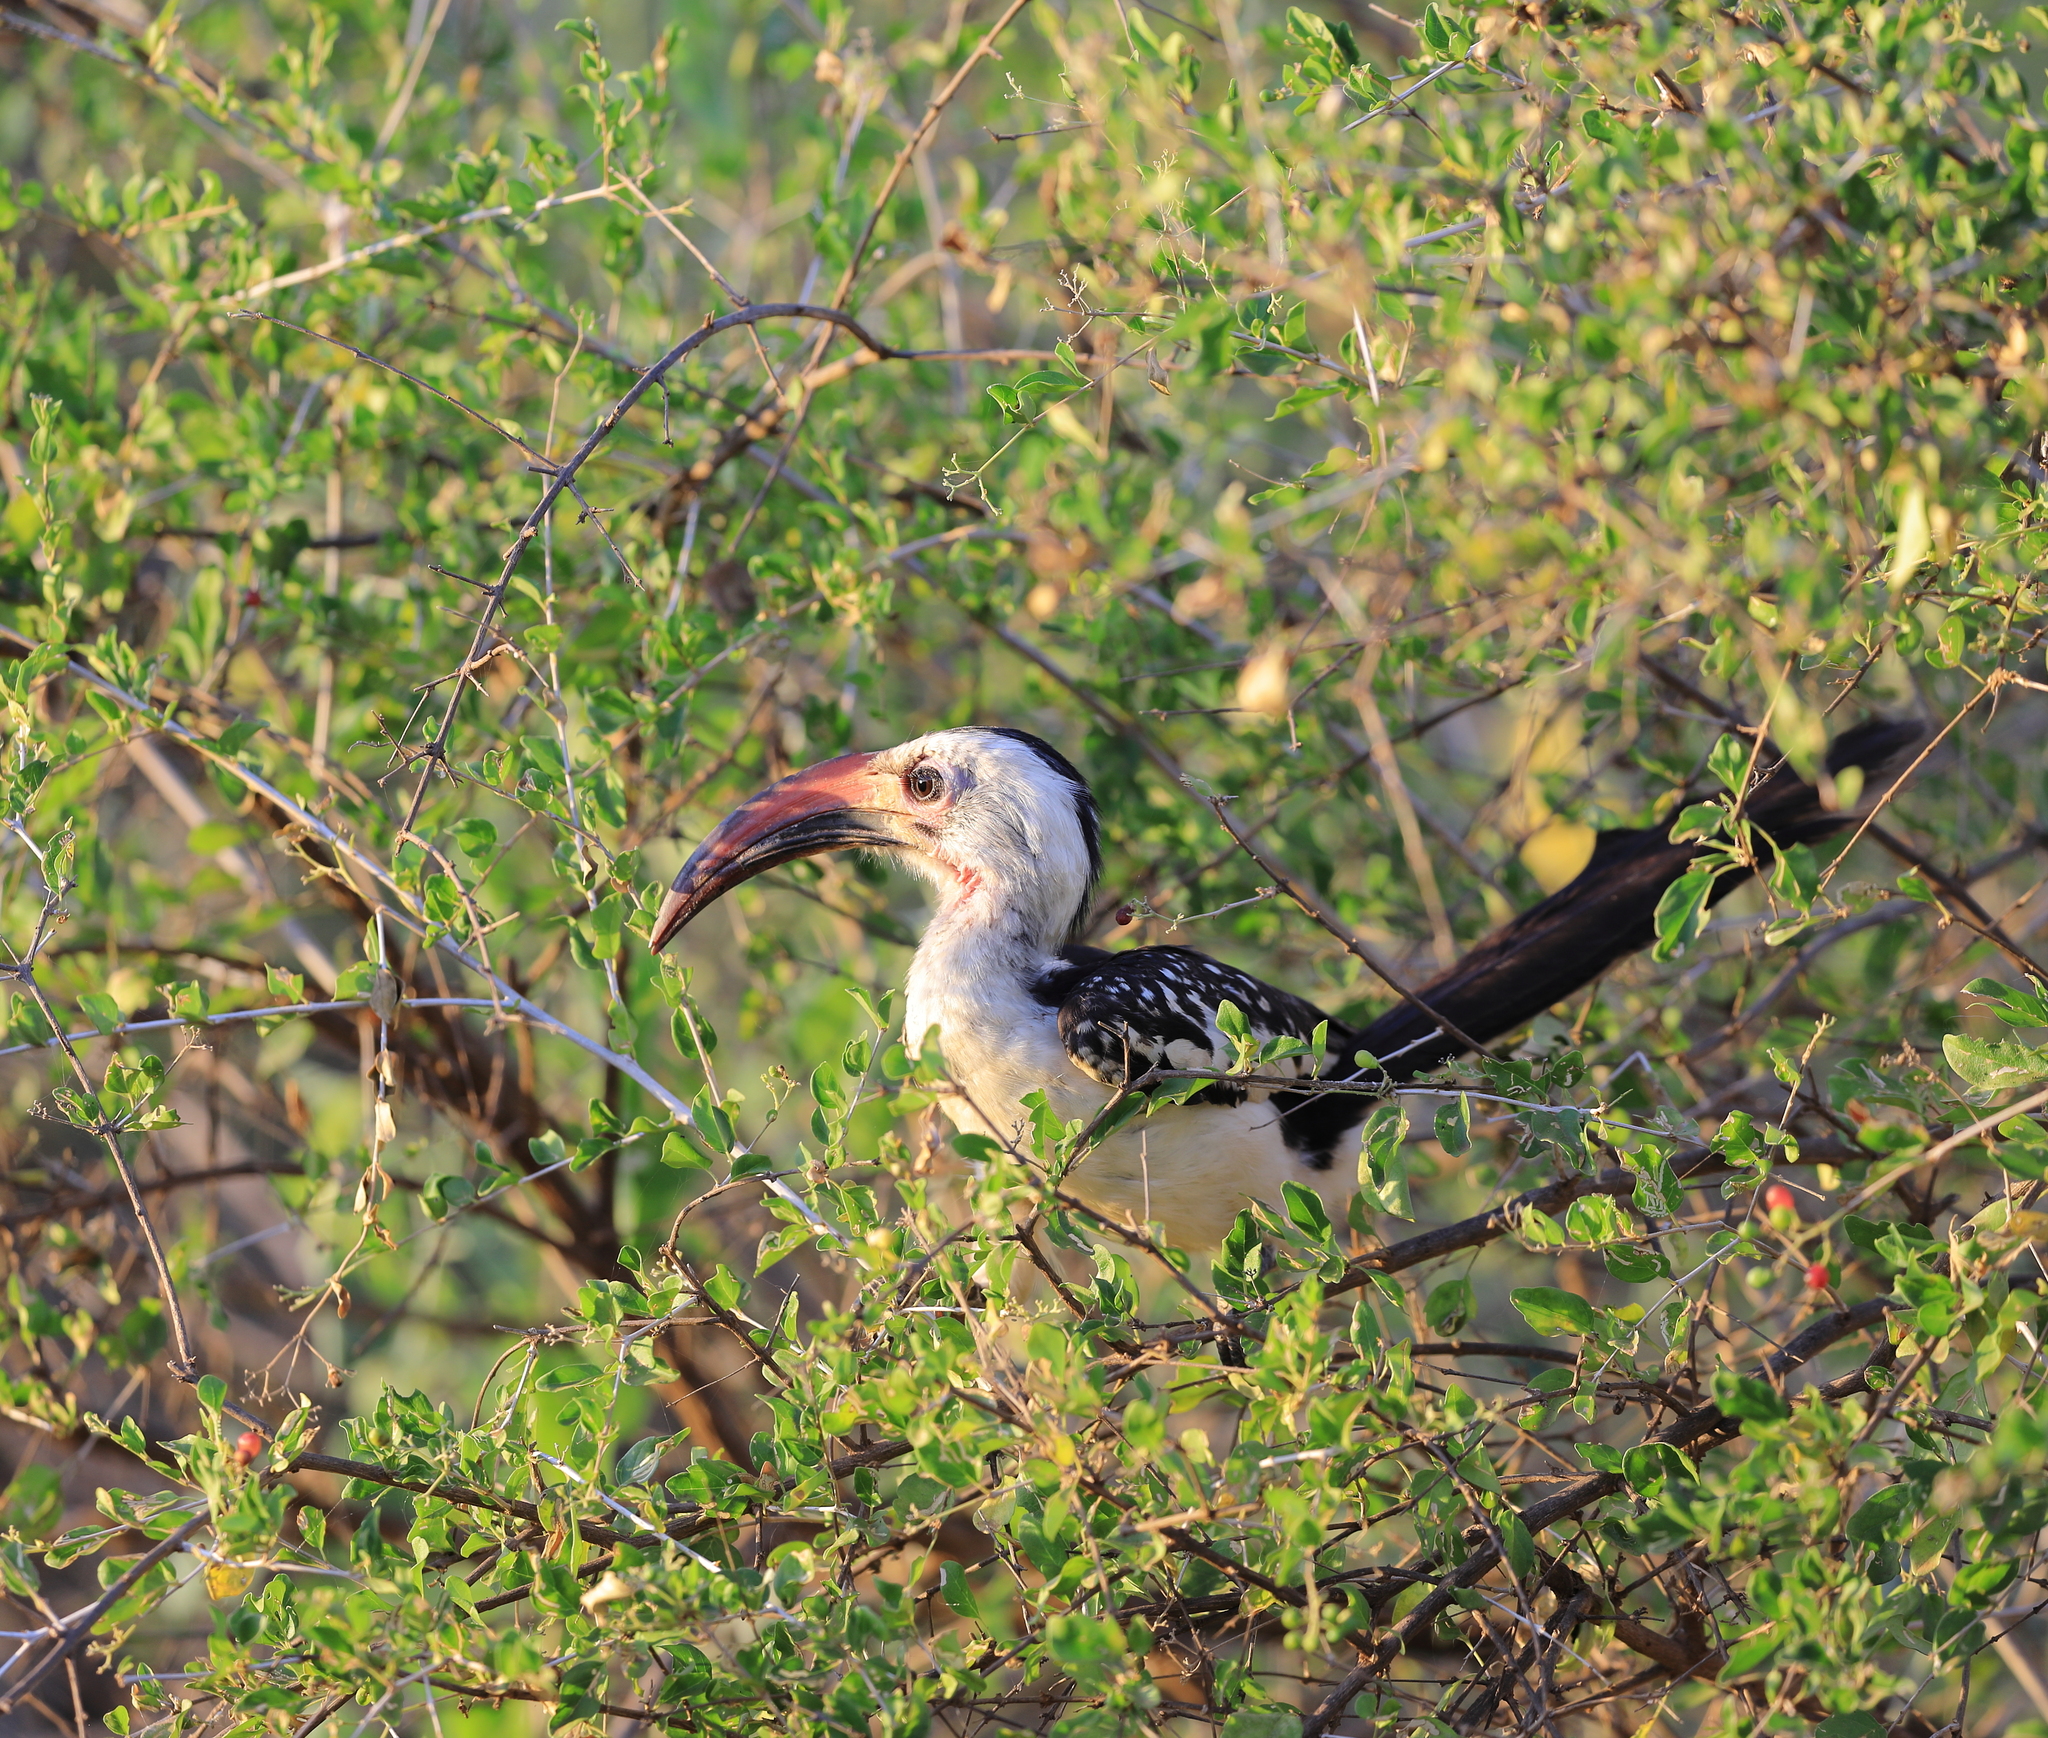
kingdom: Animalia
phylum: Chordata
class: Aves
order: Bucerotiformes
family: Bucerotidae
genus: Tockus
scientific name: Tockus erythrorhynchus
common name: Northern red-billed hornbill
